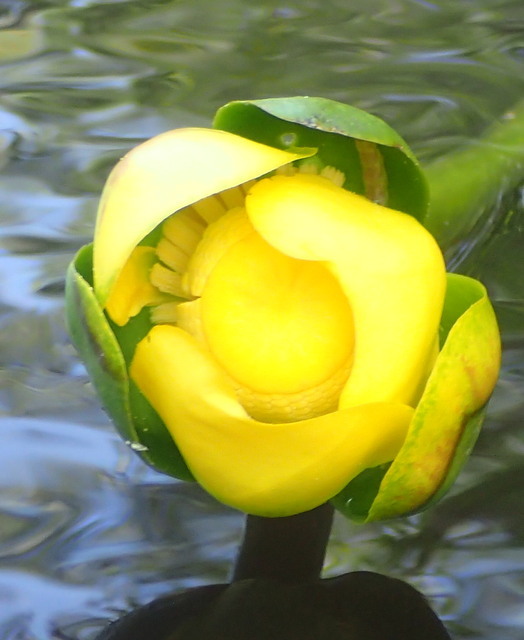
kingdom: Plantae
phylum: Tracheophyta
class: Magnoliopsida
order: Nymphaeales
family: Nymphaeaceae
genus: Nuphar
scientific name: Nuphar advena
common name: Spatter-dock
